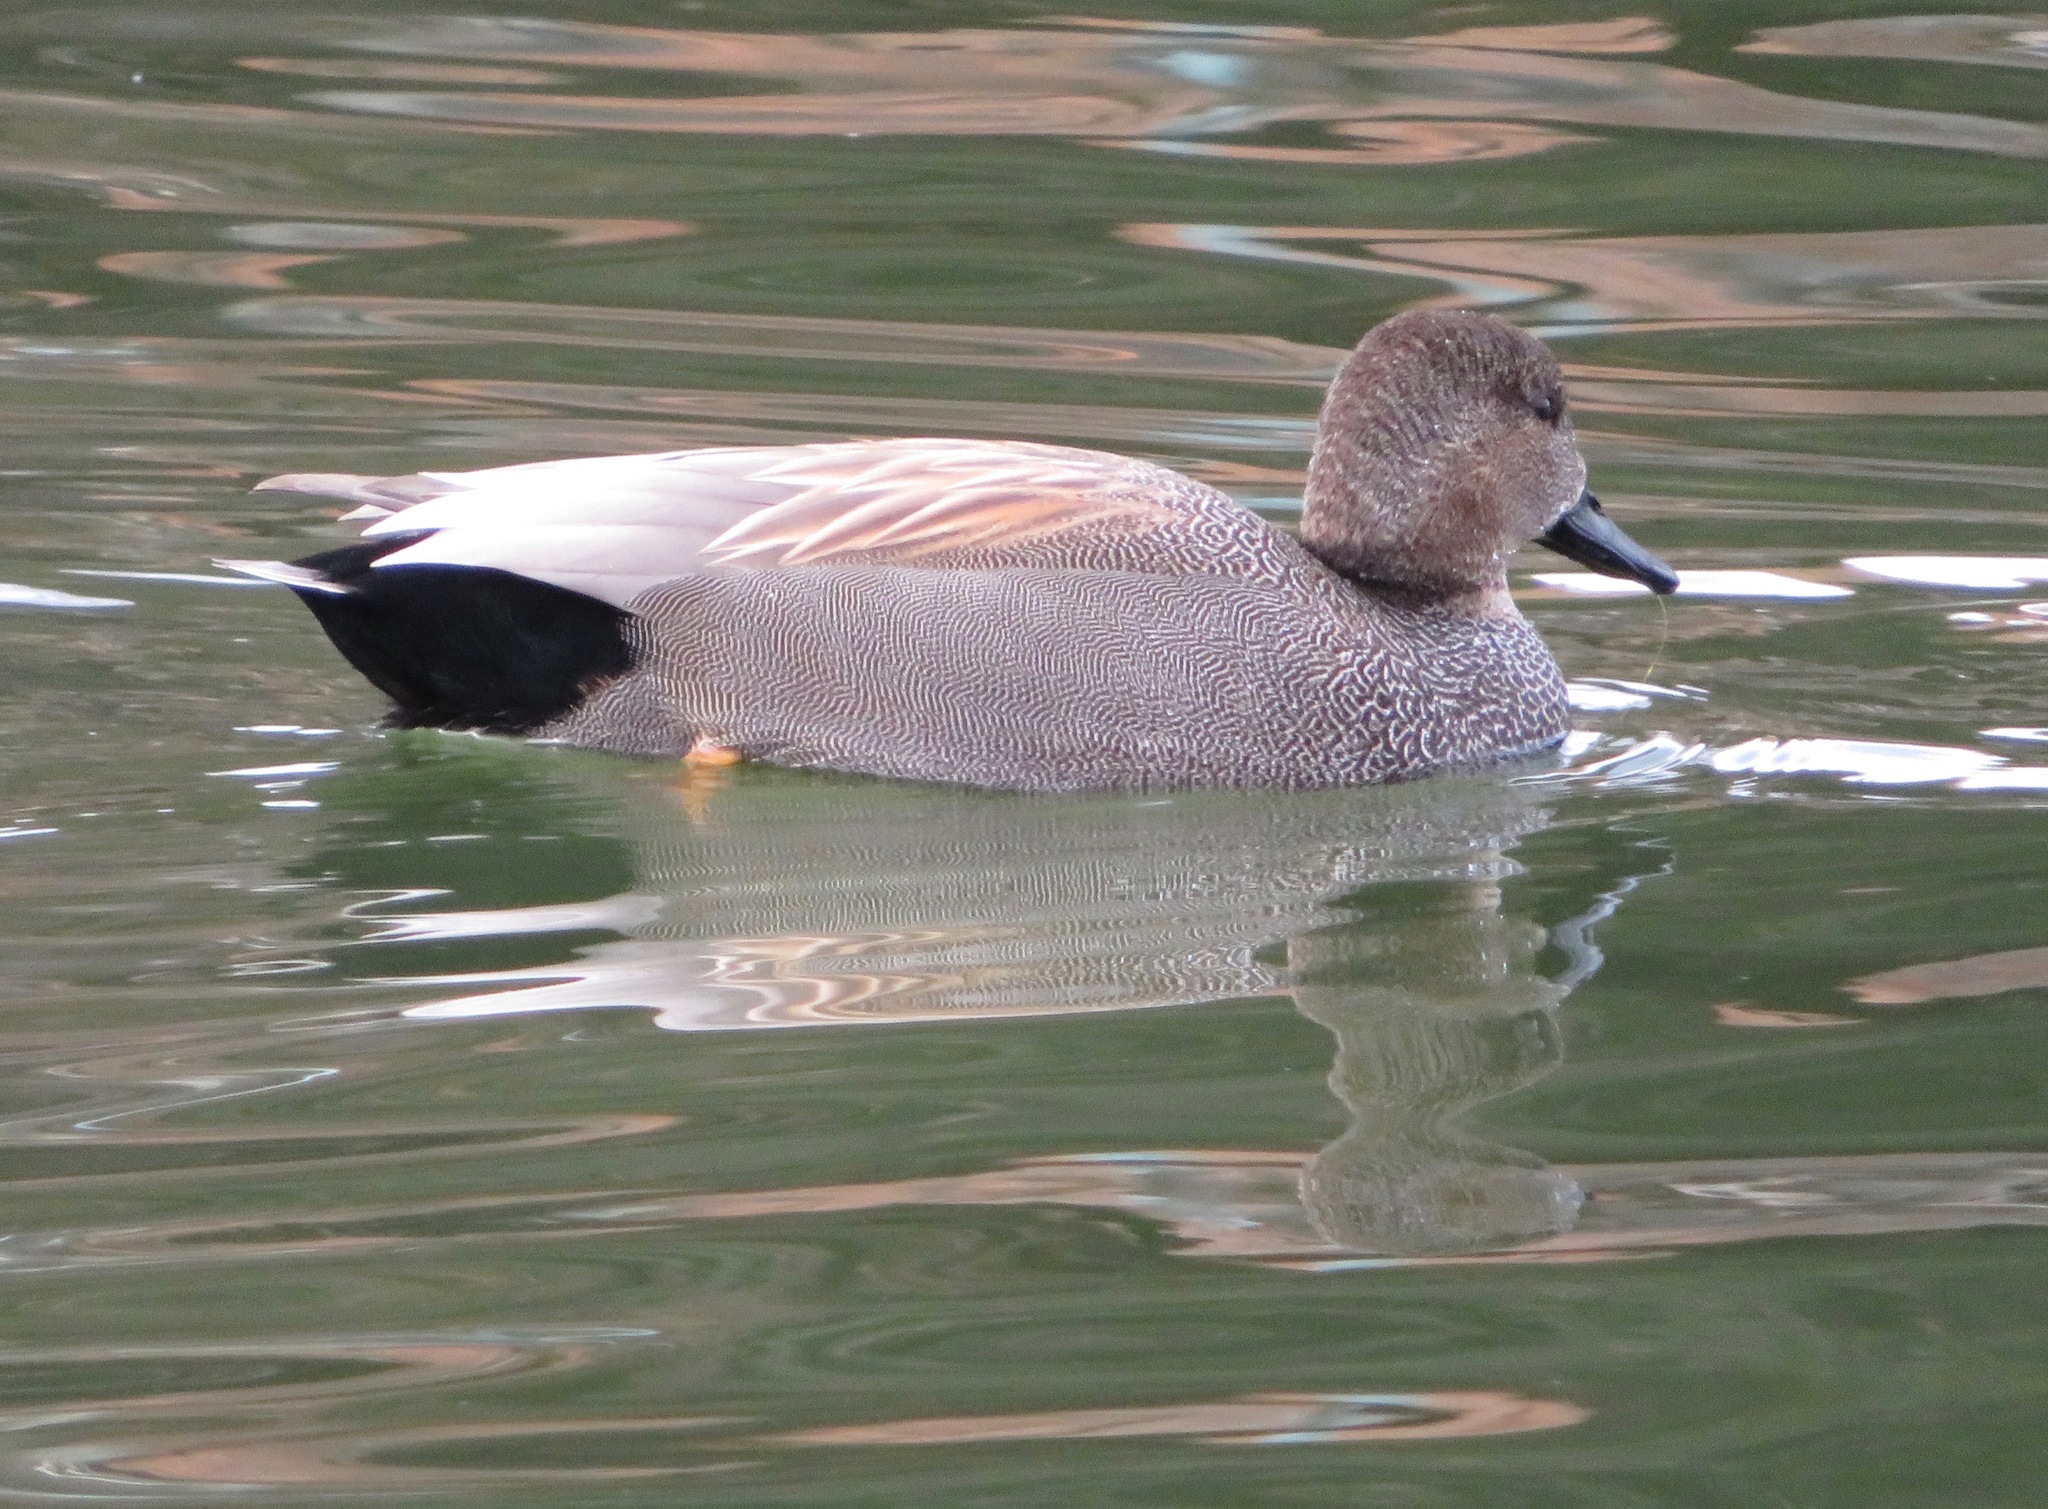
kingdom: Animalia
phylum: Chordata
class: Aves
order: Anseriformes
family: Anatidae
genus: Mareca
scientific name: Mareca strepera
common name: Gadwall
